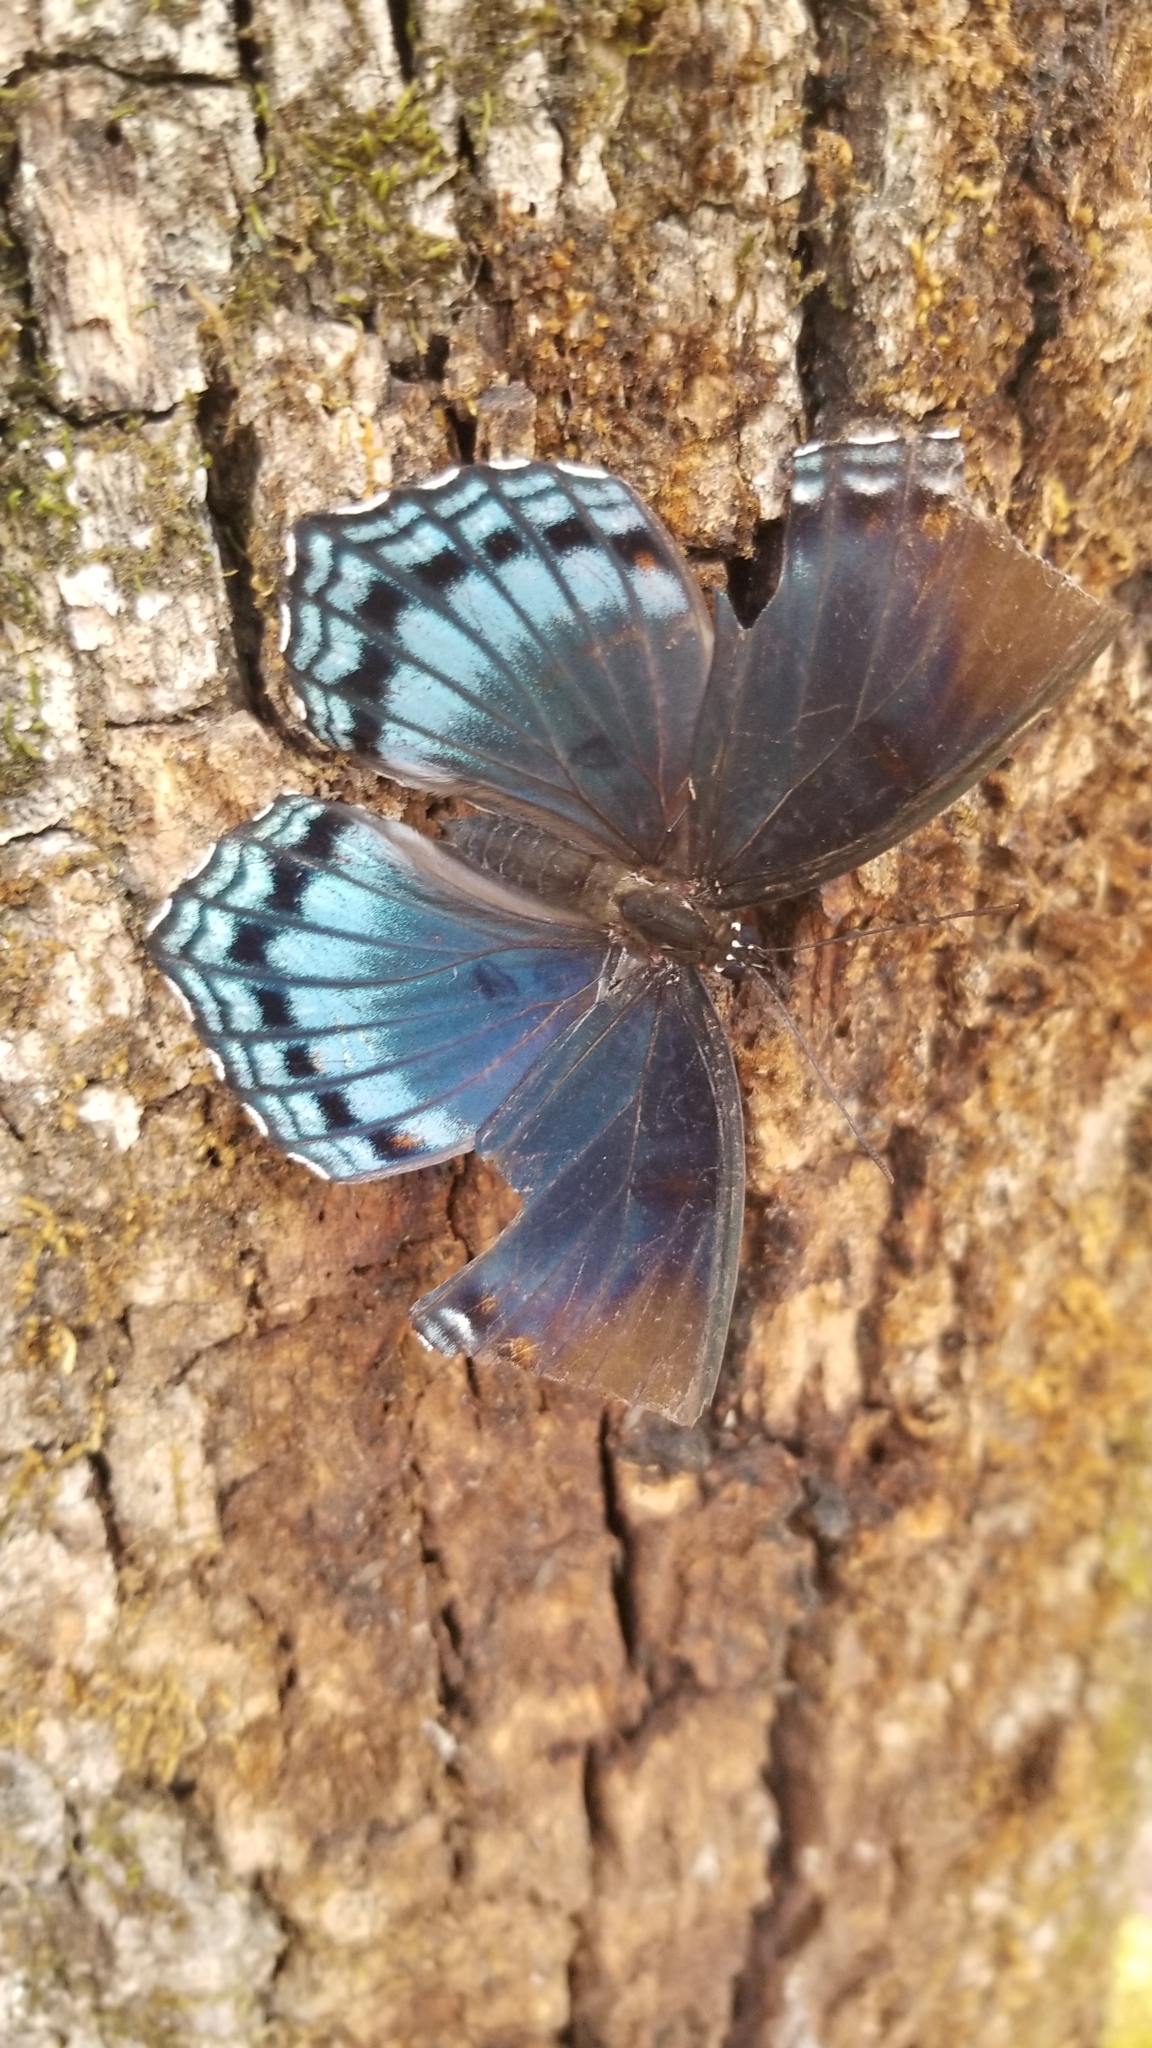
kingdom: Animalia
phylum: Arthropoda
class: Insecta
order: Lepidoptera
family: Nymphalidae
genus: Limenitis
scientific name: Limenitis arthemis
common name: Red-spotted admiral
